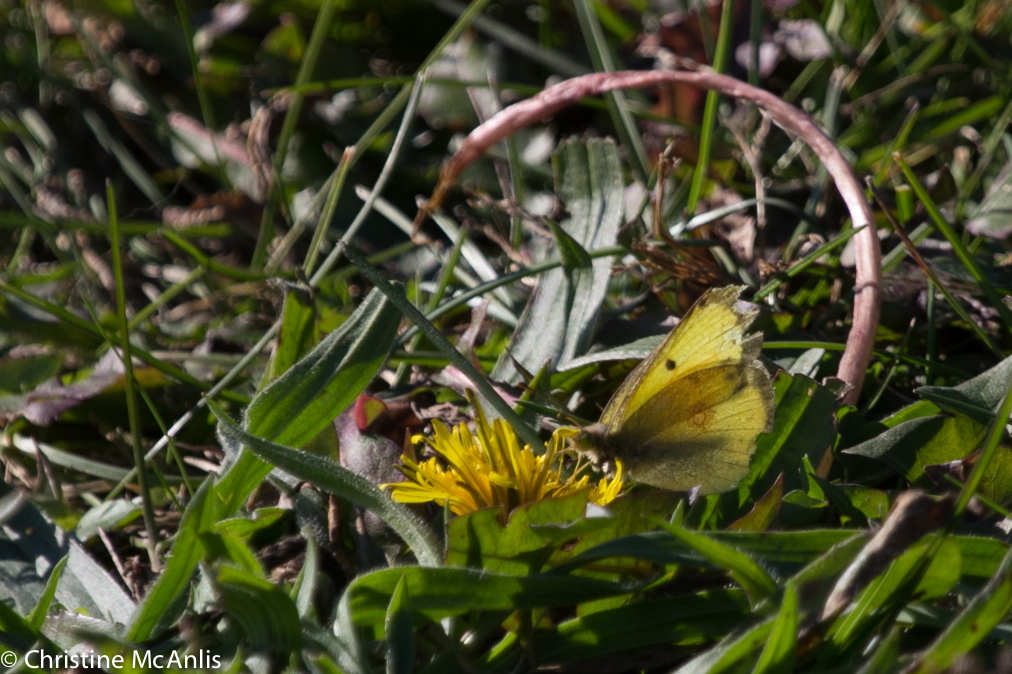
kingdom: Animalia
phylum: Arthropoda
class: Insecta
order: Lepidoptera
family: Pieridae
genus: Colias
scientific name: Colias philodice
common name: Clouded sulphur
